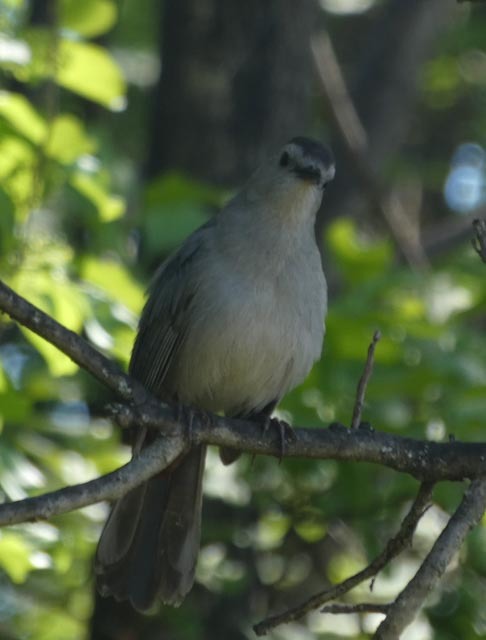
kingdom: Animalia
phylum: Chordata
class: Aves
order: Passeriformes
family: Mimidae
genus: Dumetella
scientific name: Dumetella carolinensis
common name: Gray catbird
